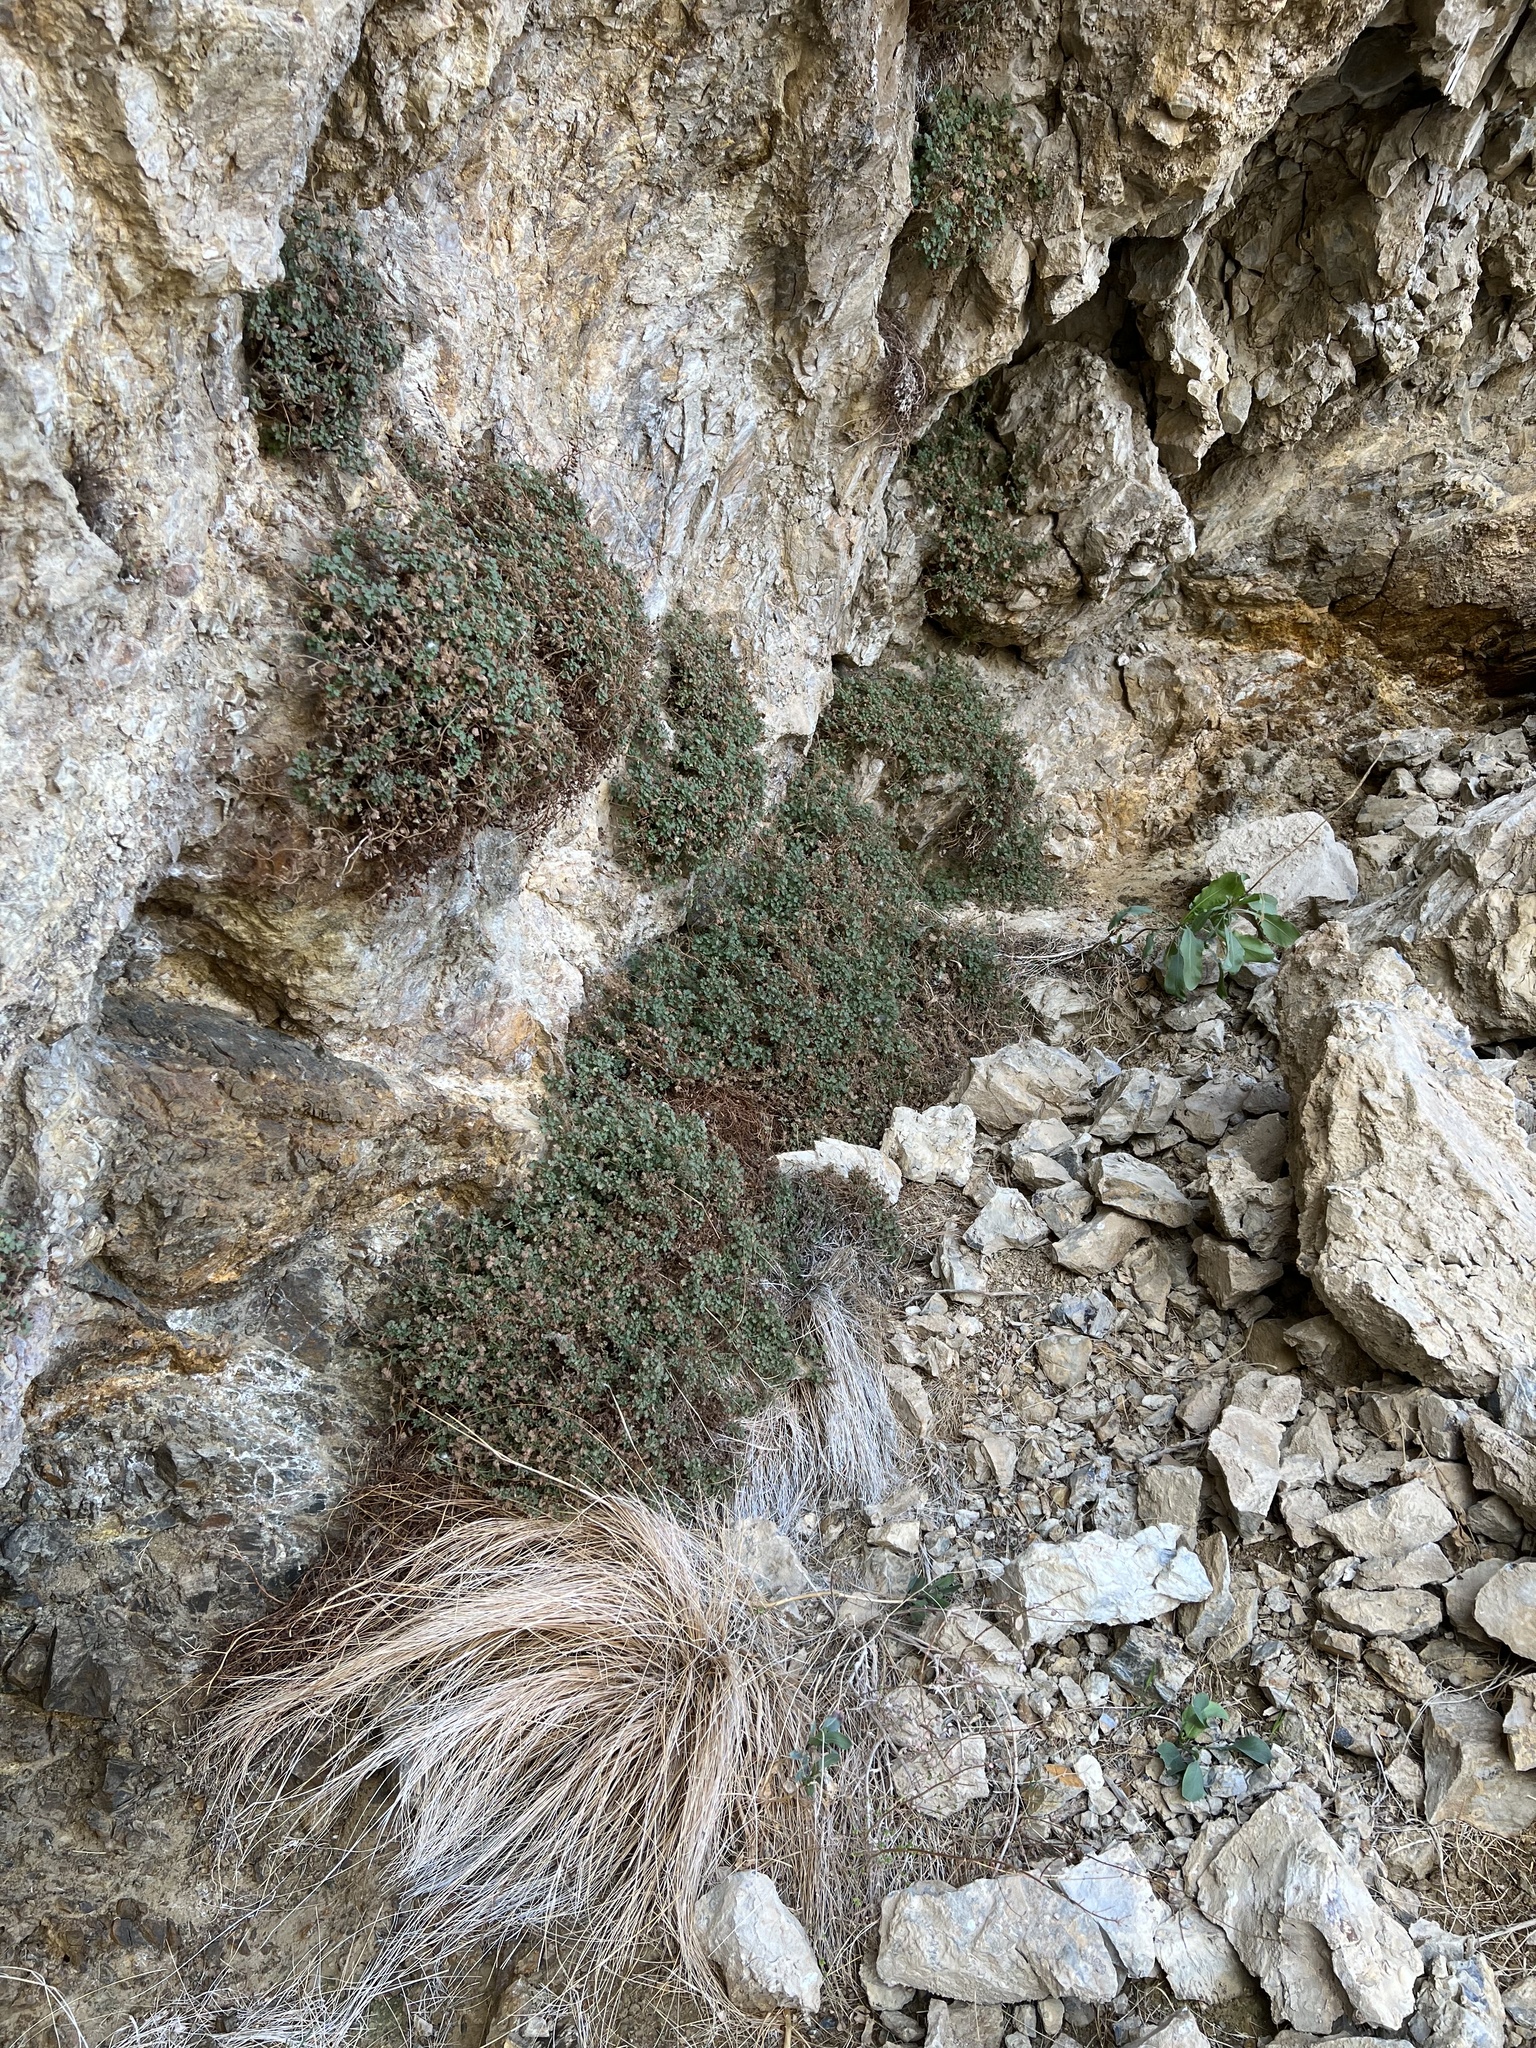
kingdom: Plantae
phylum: Tracheophyta
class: Magnoliopsida
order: Boraginales
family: Hydrophyllaceae
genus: Phacelia
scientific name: Phacelia perityloides
